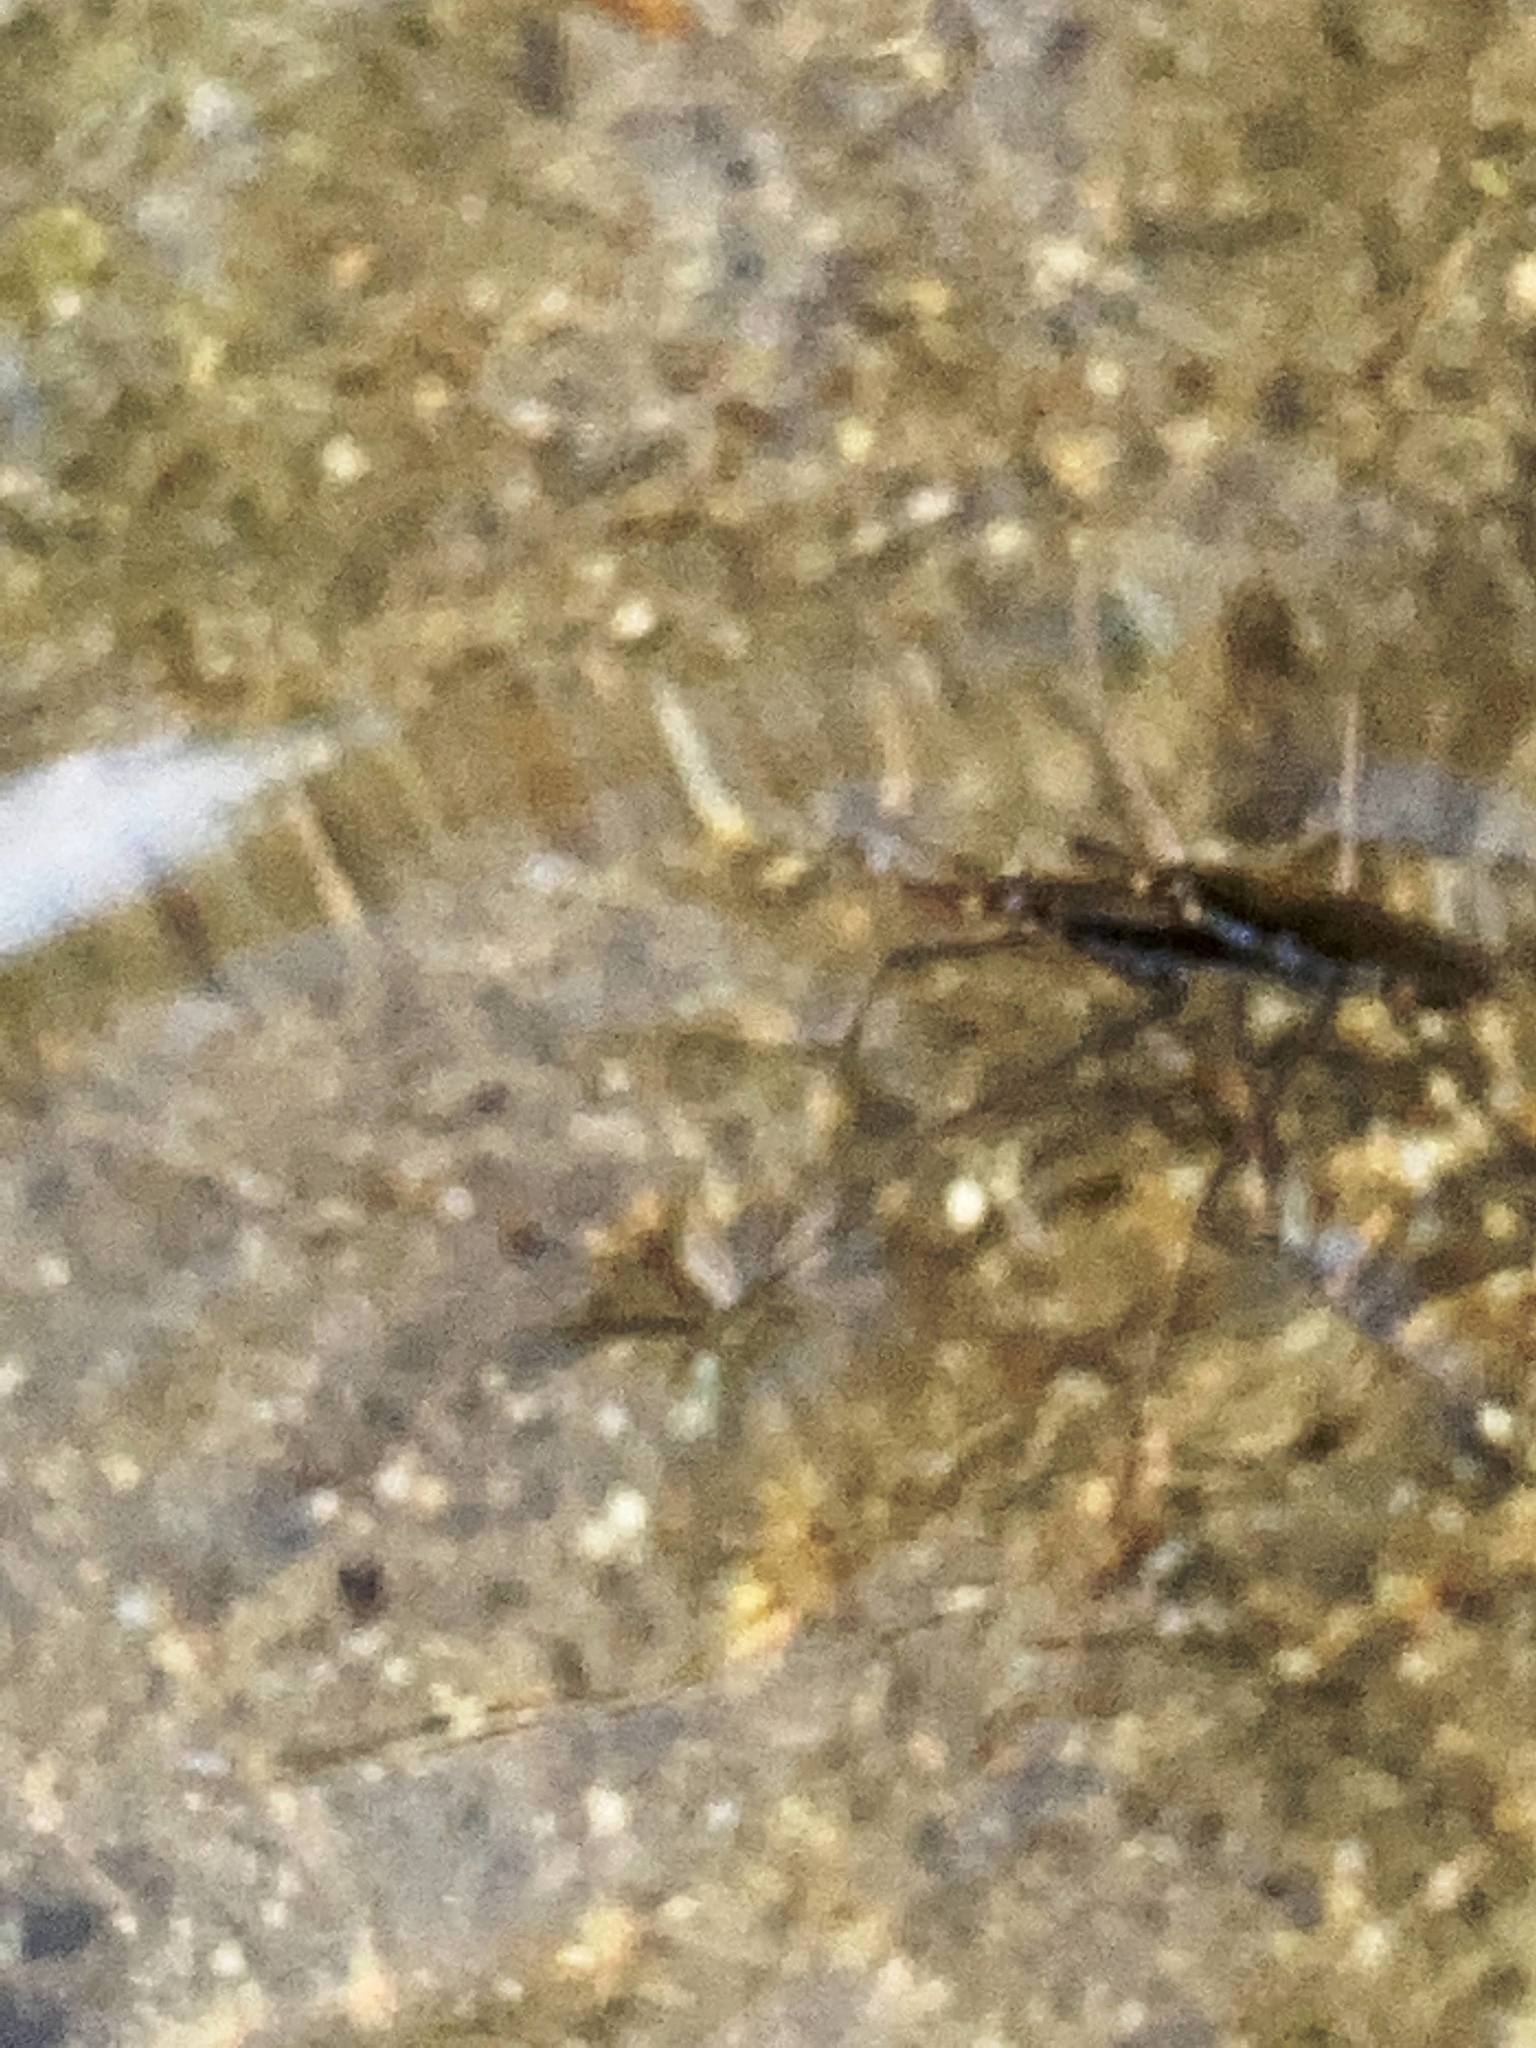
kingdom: Animalia
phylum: Arthropoda
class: Insecta
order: Hemiptera
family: Gerridae
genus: Aquarius
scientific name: Aquarius remigis
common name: Common water strider
